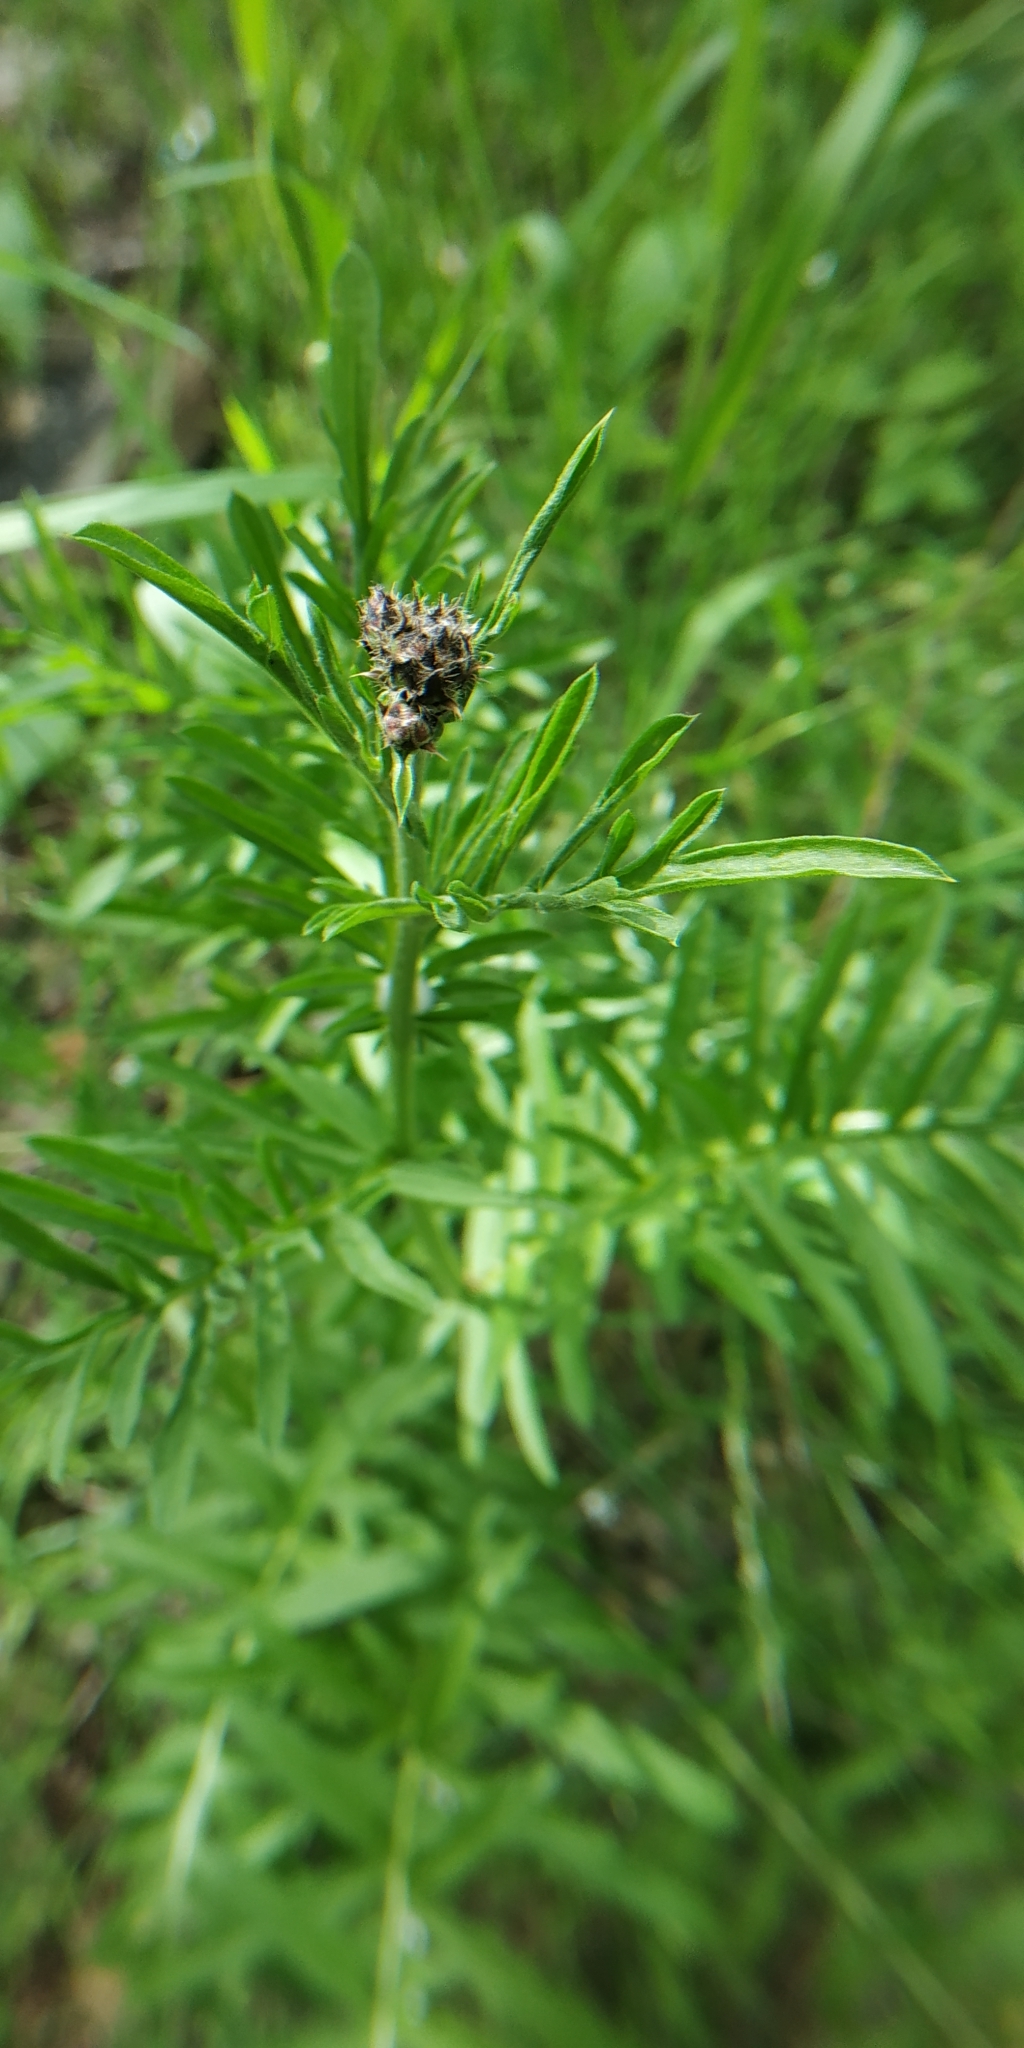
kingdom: Plantae
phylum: Tracheophyta
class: Magnoliopsida
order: Asterales
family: Asteraceae
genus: Centaurea
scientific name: Centaurea scabiosa
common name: Greater knapweed
